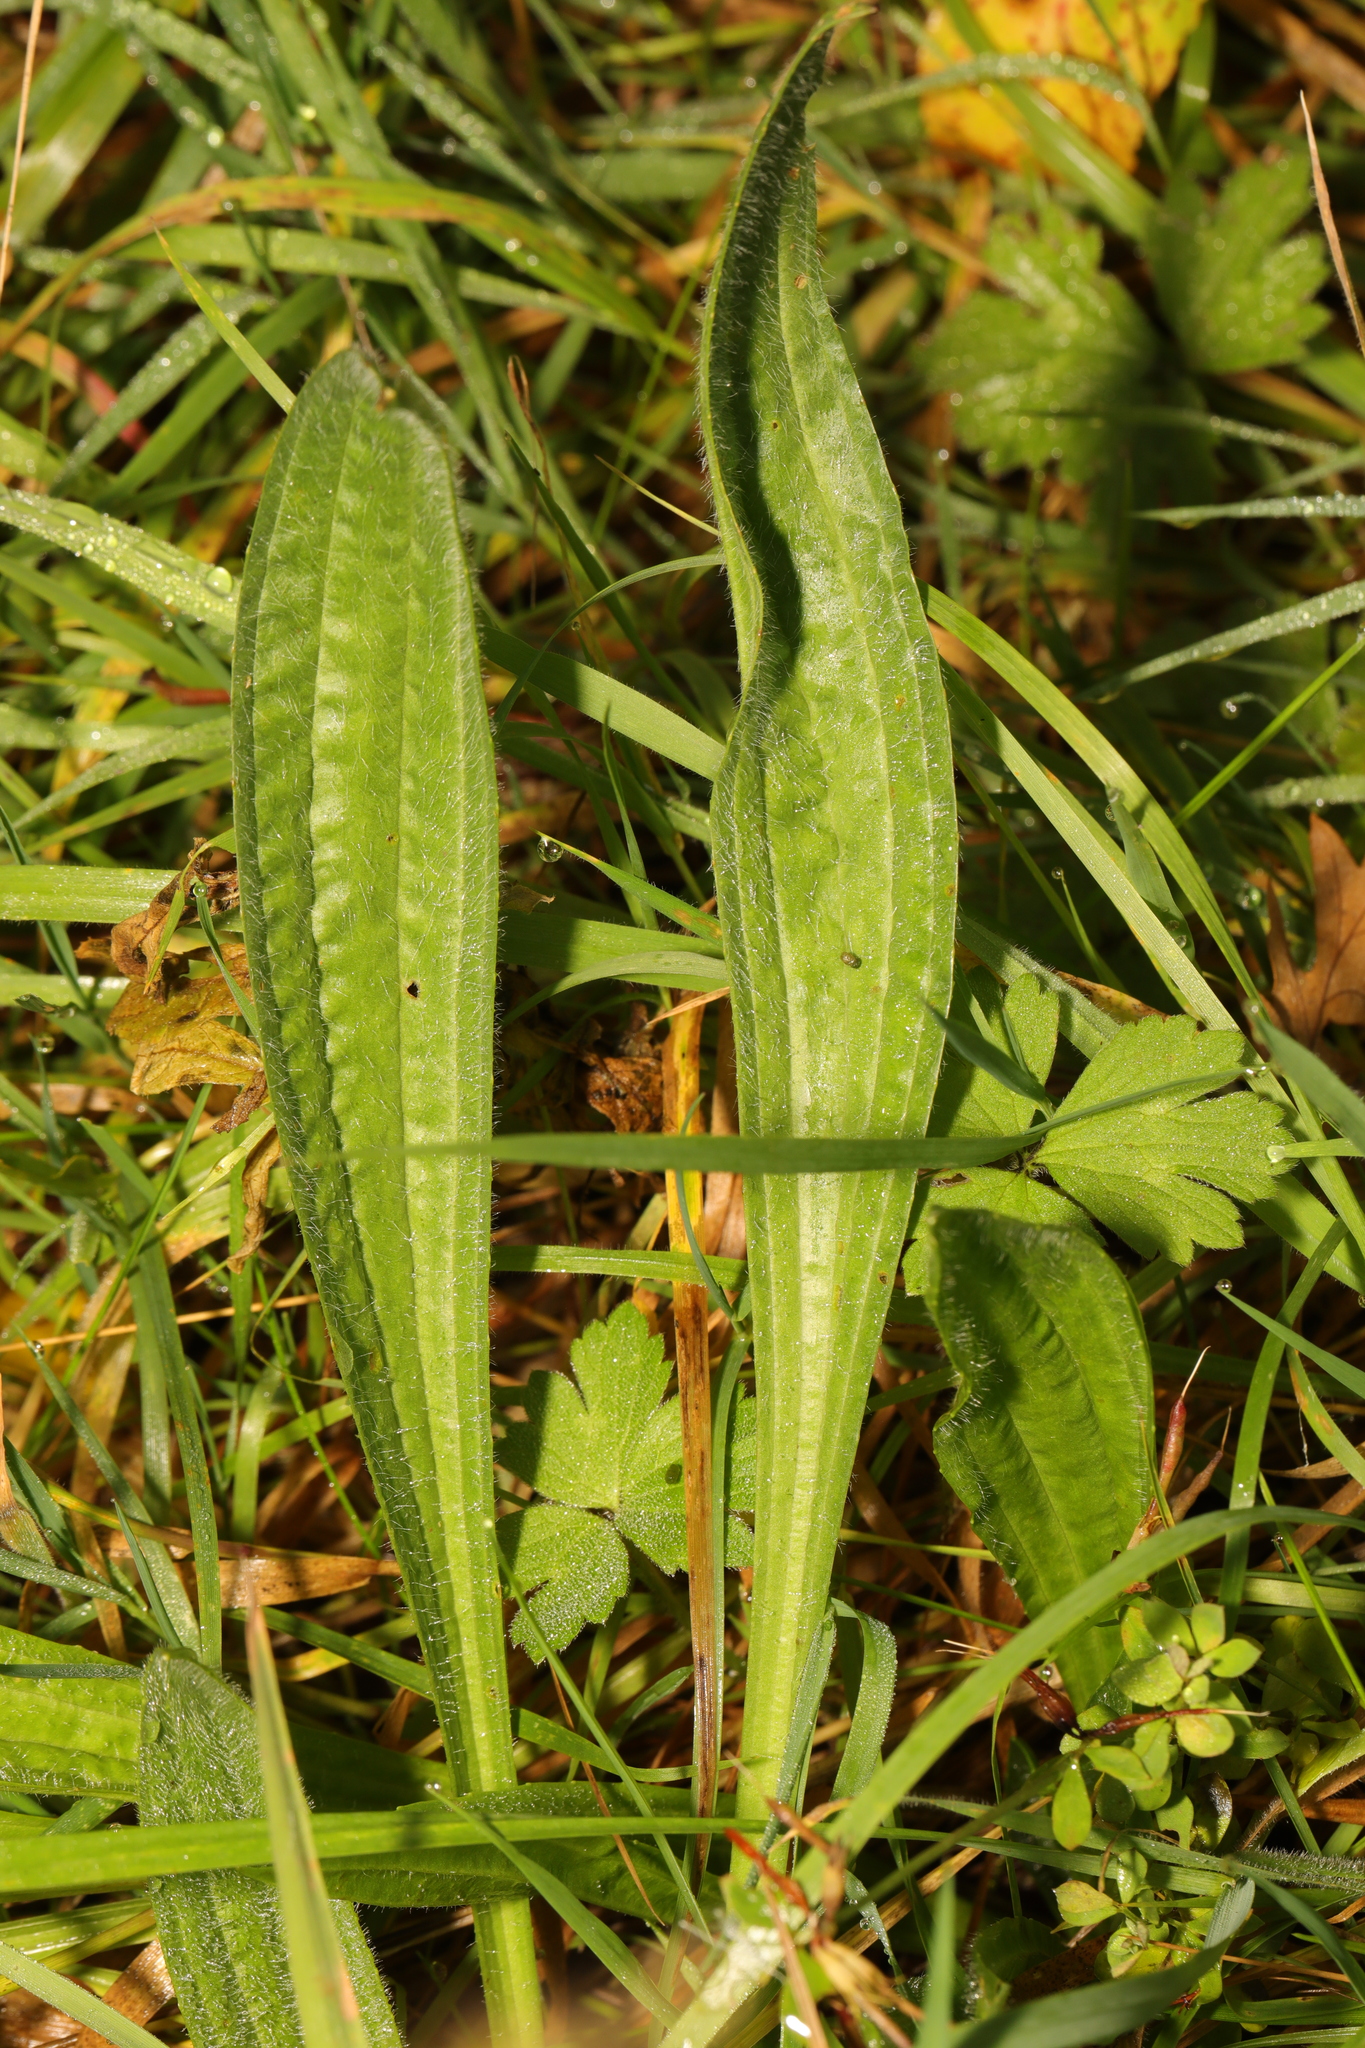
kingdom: Plantae
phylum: Tracheophyta
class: Magnoliopsida
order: Lamiales
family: Plantaginaceae
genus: Plantago
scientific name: Plantago lanceolata
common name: Ribwort plantain
